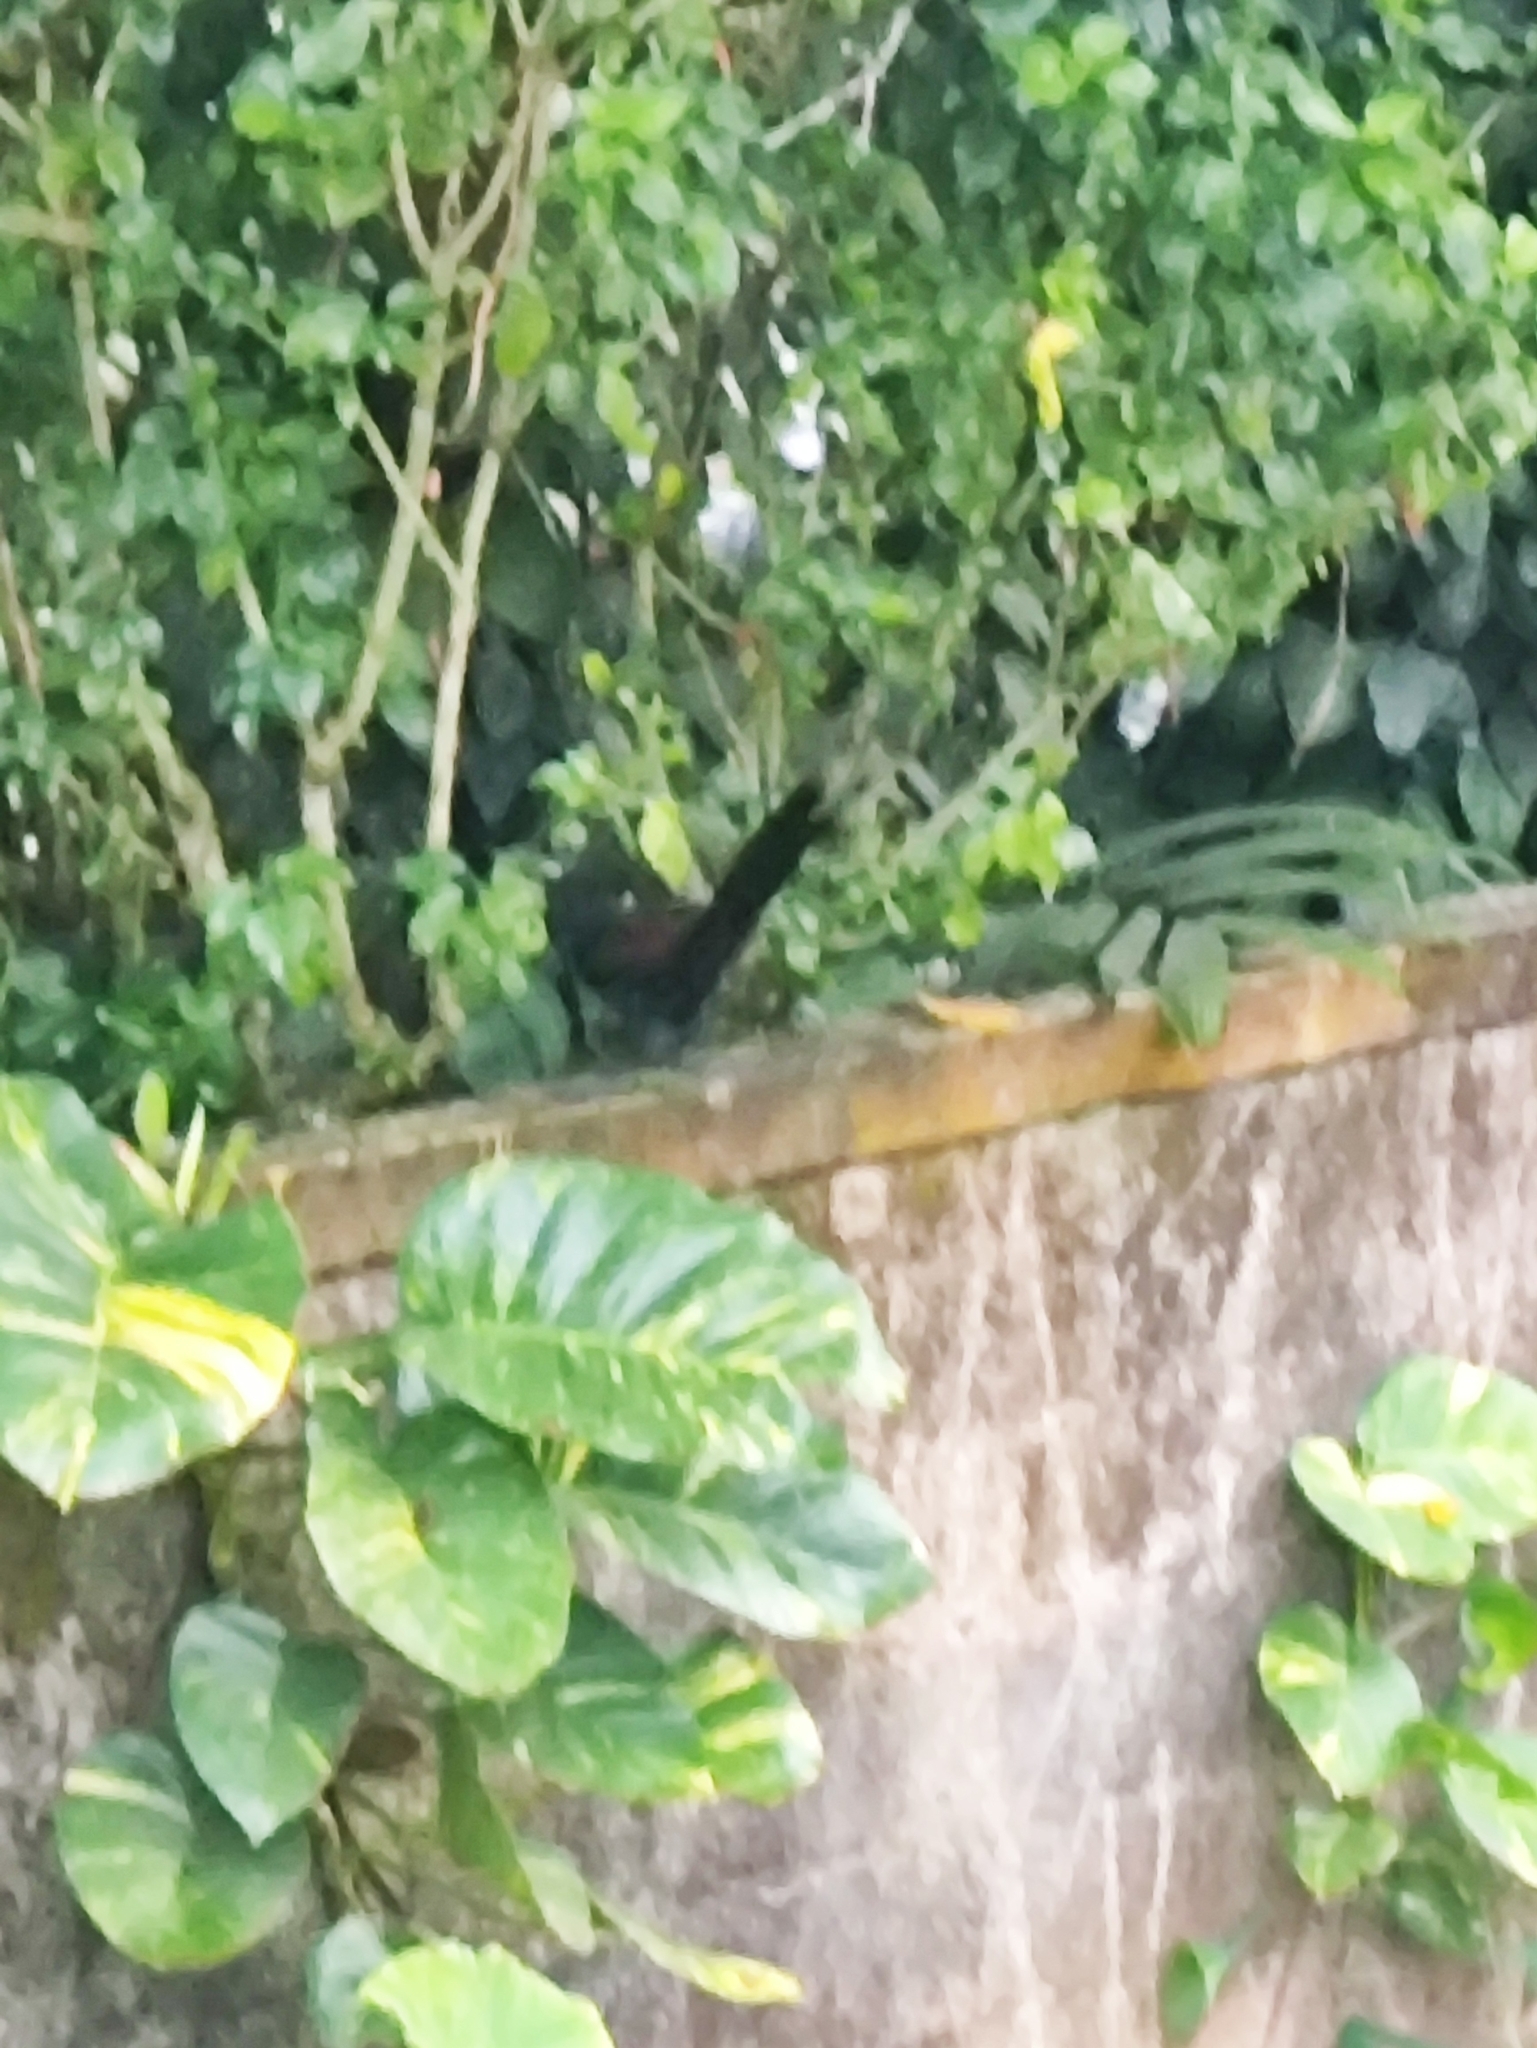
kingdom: Animalia
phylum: Chordata
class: Aves
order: Cuculiformes
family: Cuculidae
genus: Centropus
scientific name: Centropus sinensis
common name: Greater coucal
